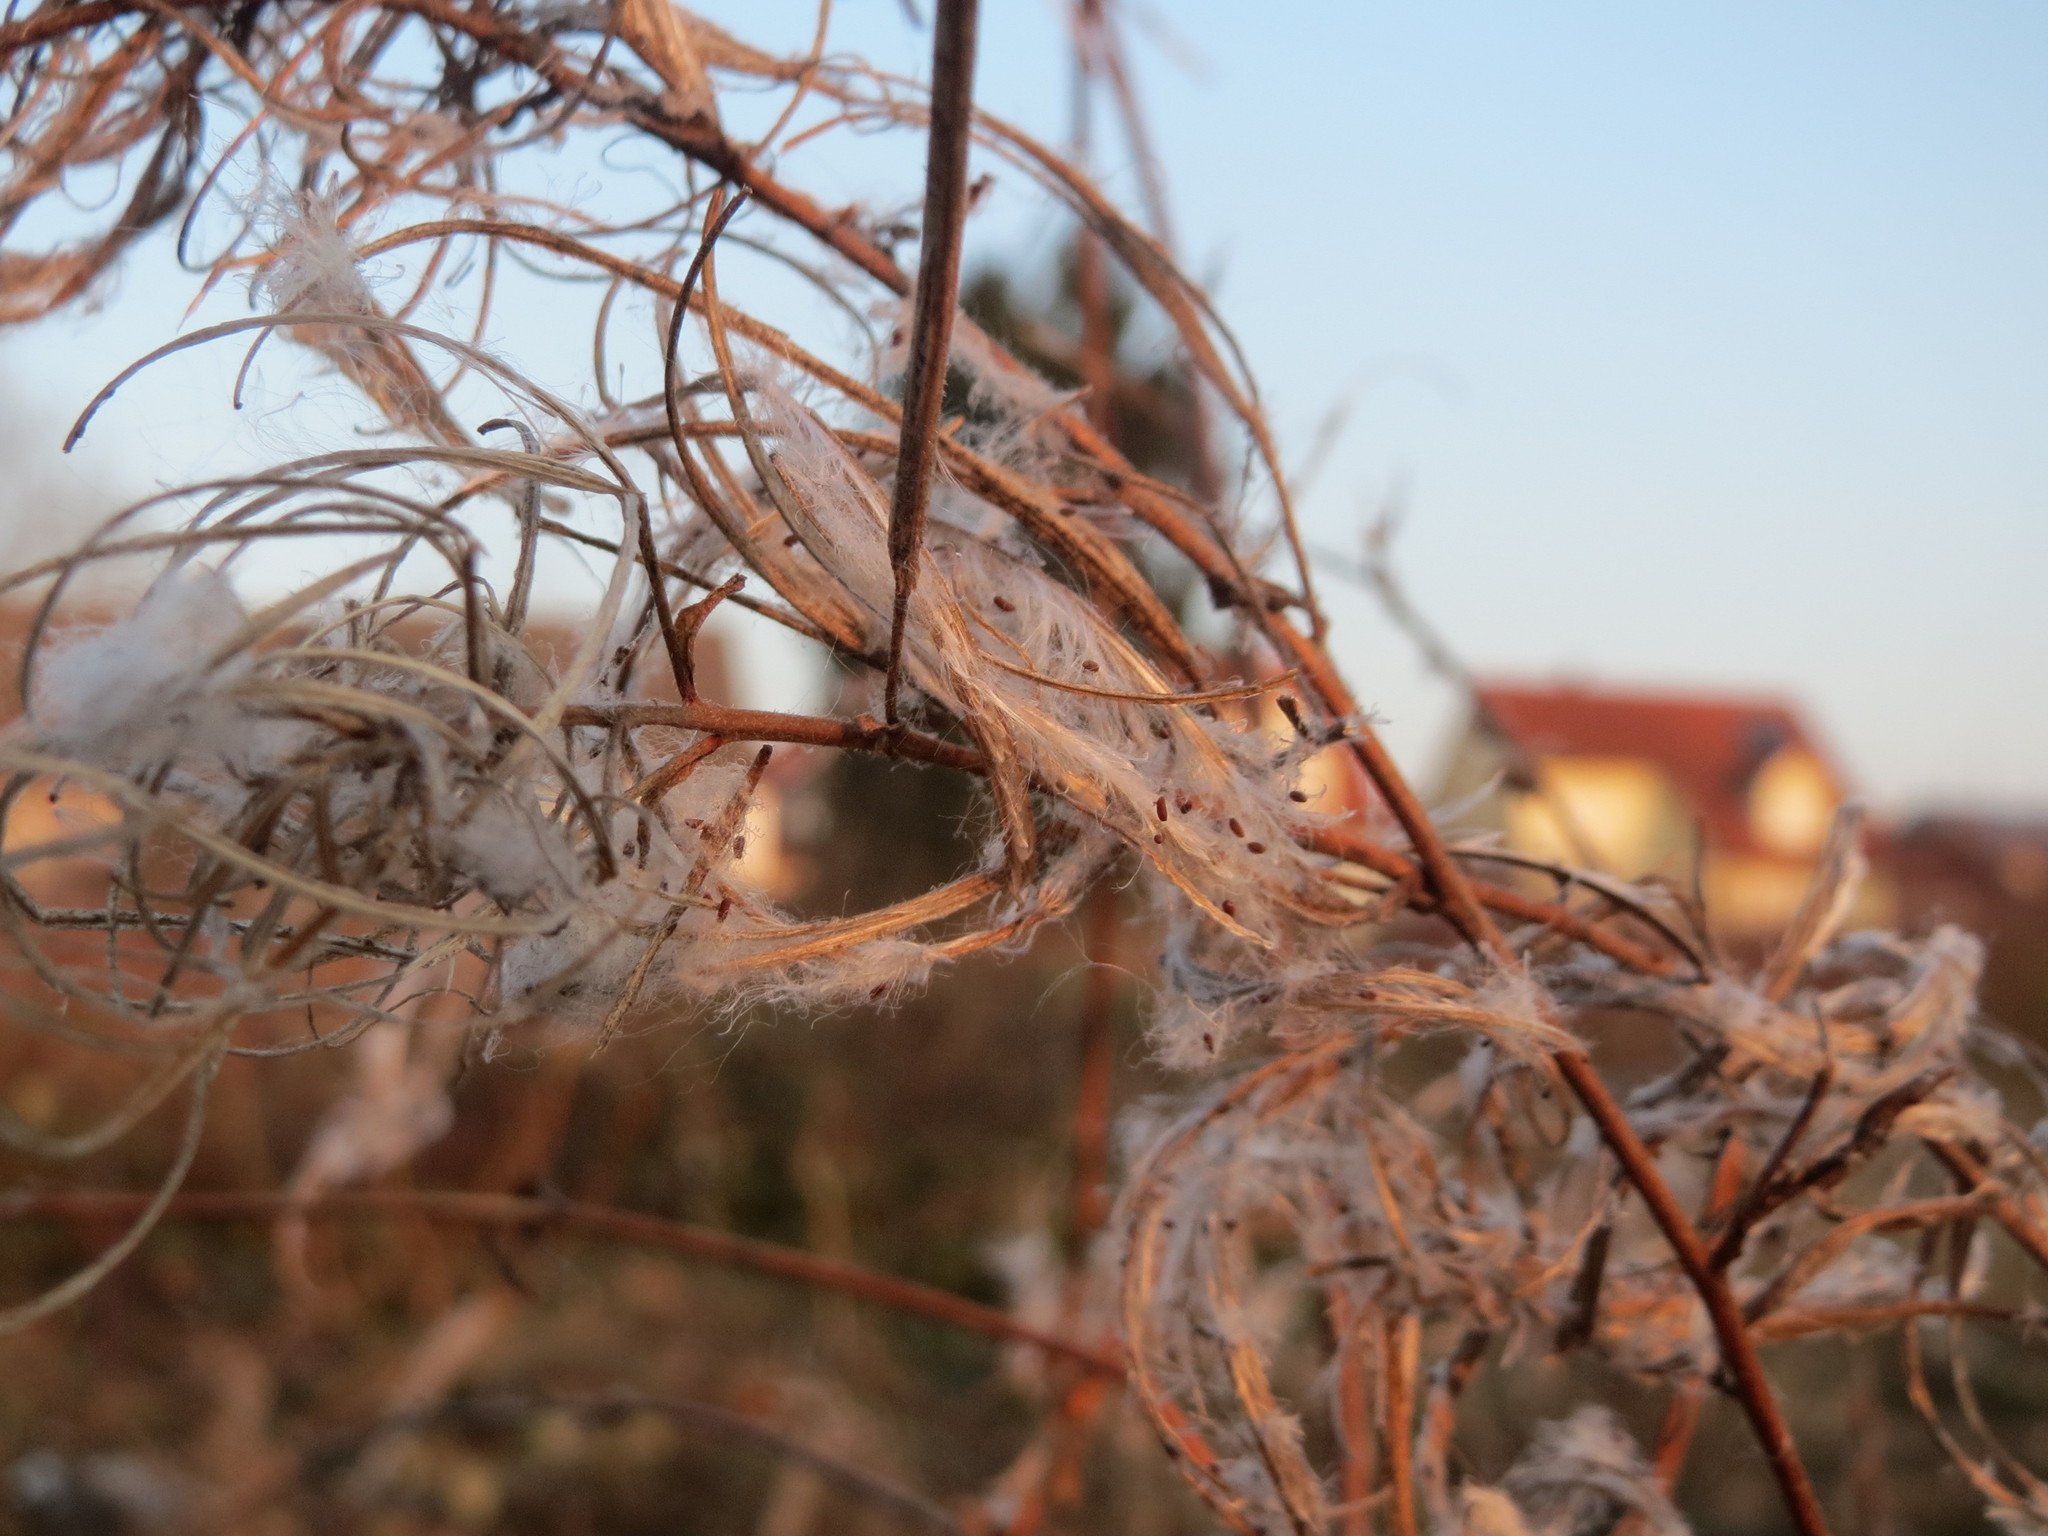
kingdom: Plantae
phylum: Tracheophyta
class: Magnoliopsida
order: Myrtales
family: Onagraceae
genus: Epilobium
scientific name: Epilobium hirsutum
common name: Great willowherb
